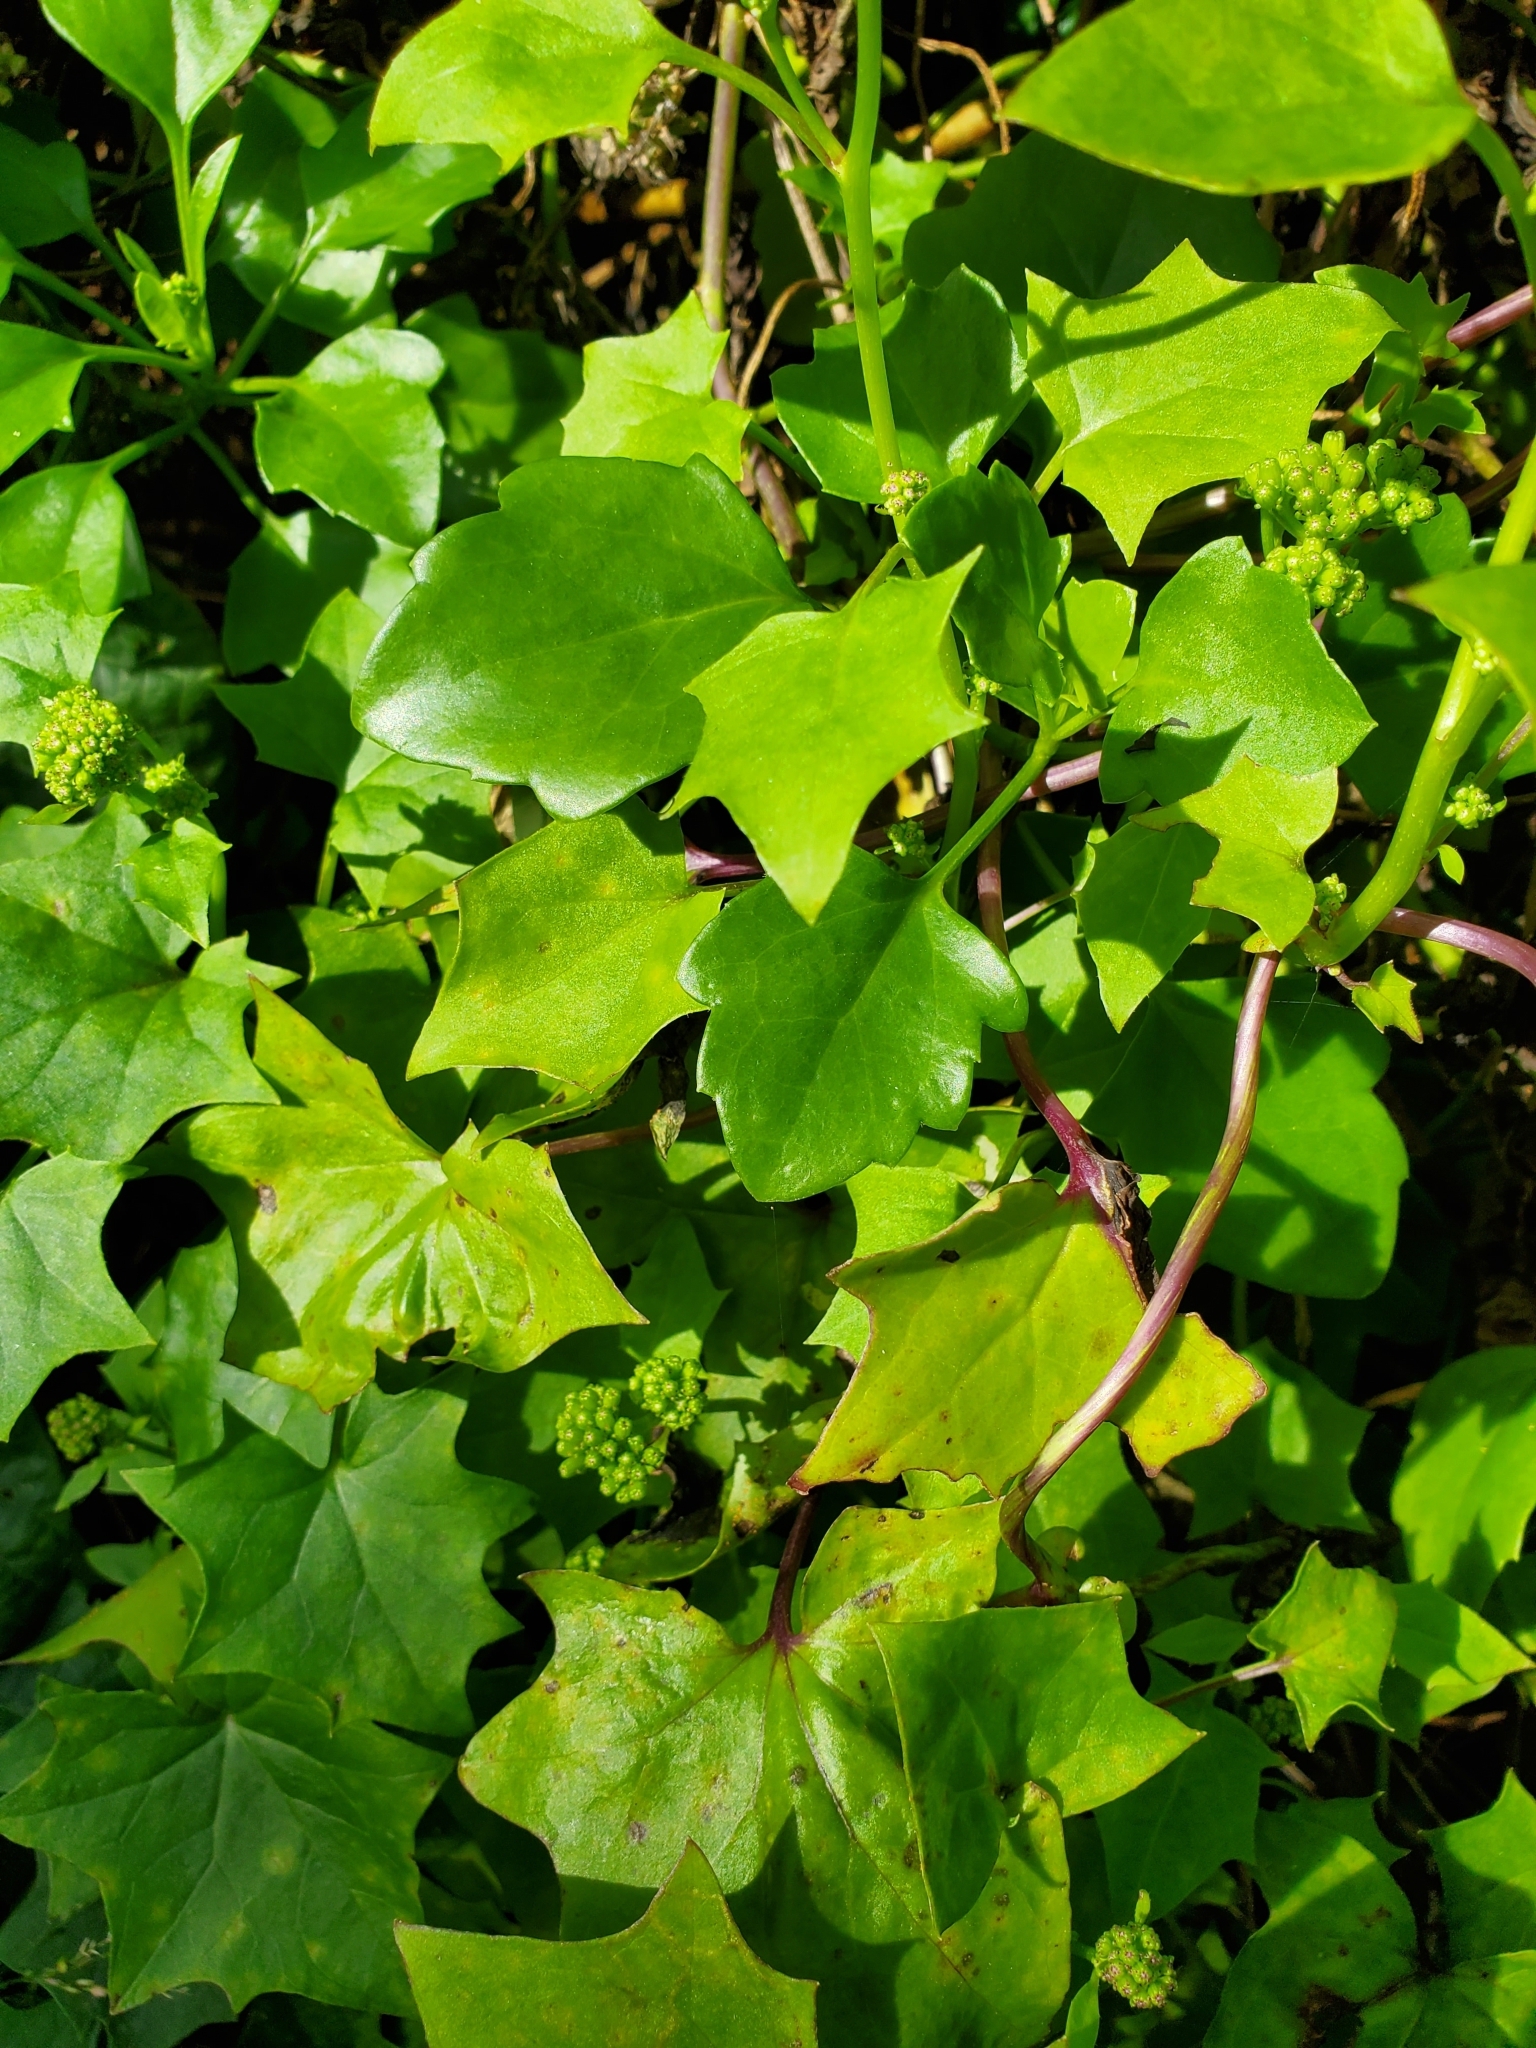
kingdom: Plantae
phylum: Tracheophyta
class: Magnoliopsida
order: Asterales
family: Asteraceae
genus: Delairea
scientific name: Delairea odorata
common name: Cape-ivy
